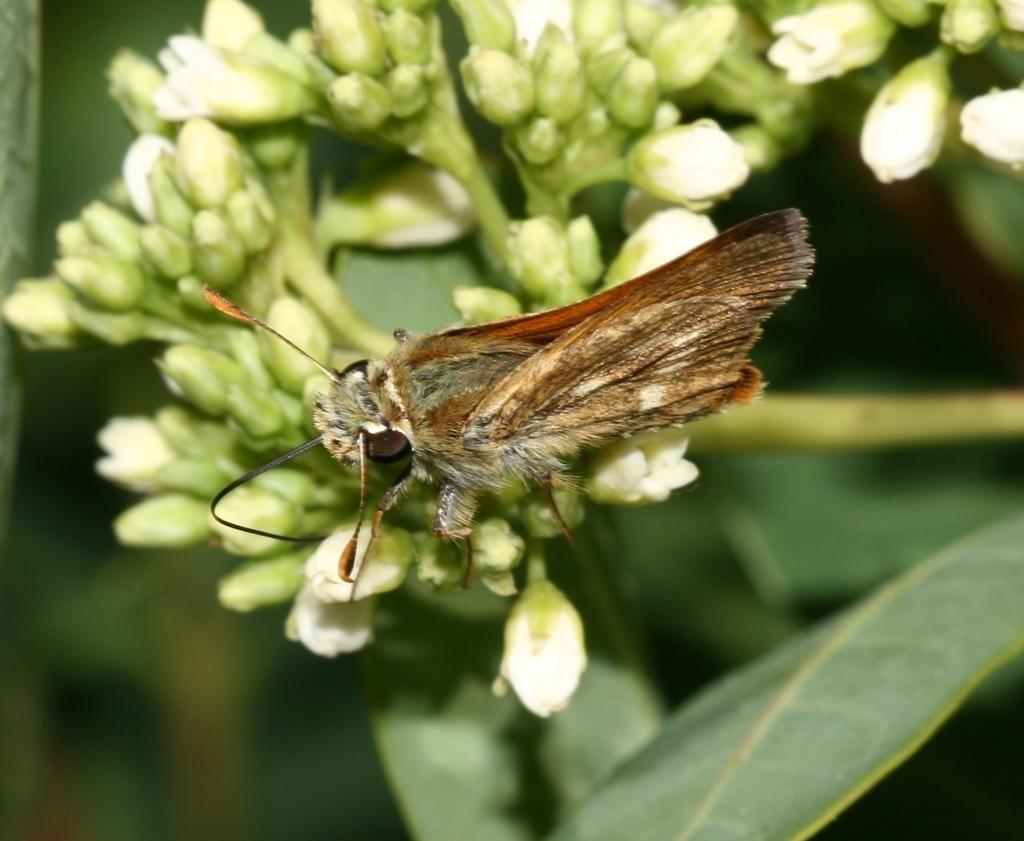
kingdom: Animalia
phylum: Arthropoda
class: Insecta
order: Lepidoptera
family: Hesperiidae
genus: Polites
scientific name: Polites mystic
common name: Long dash
